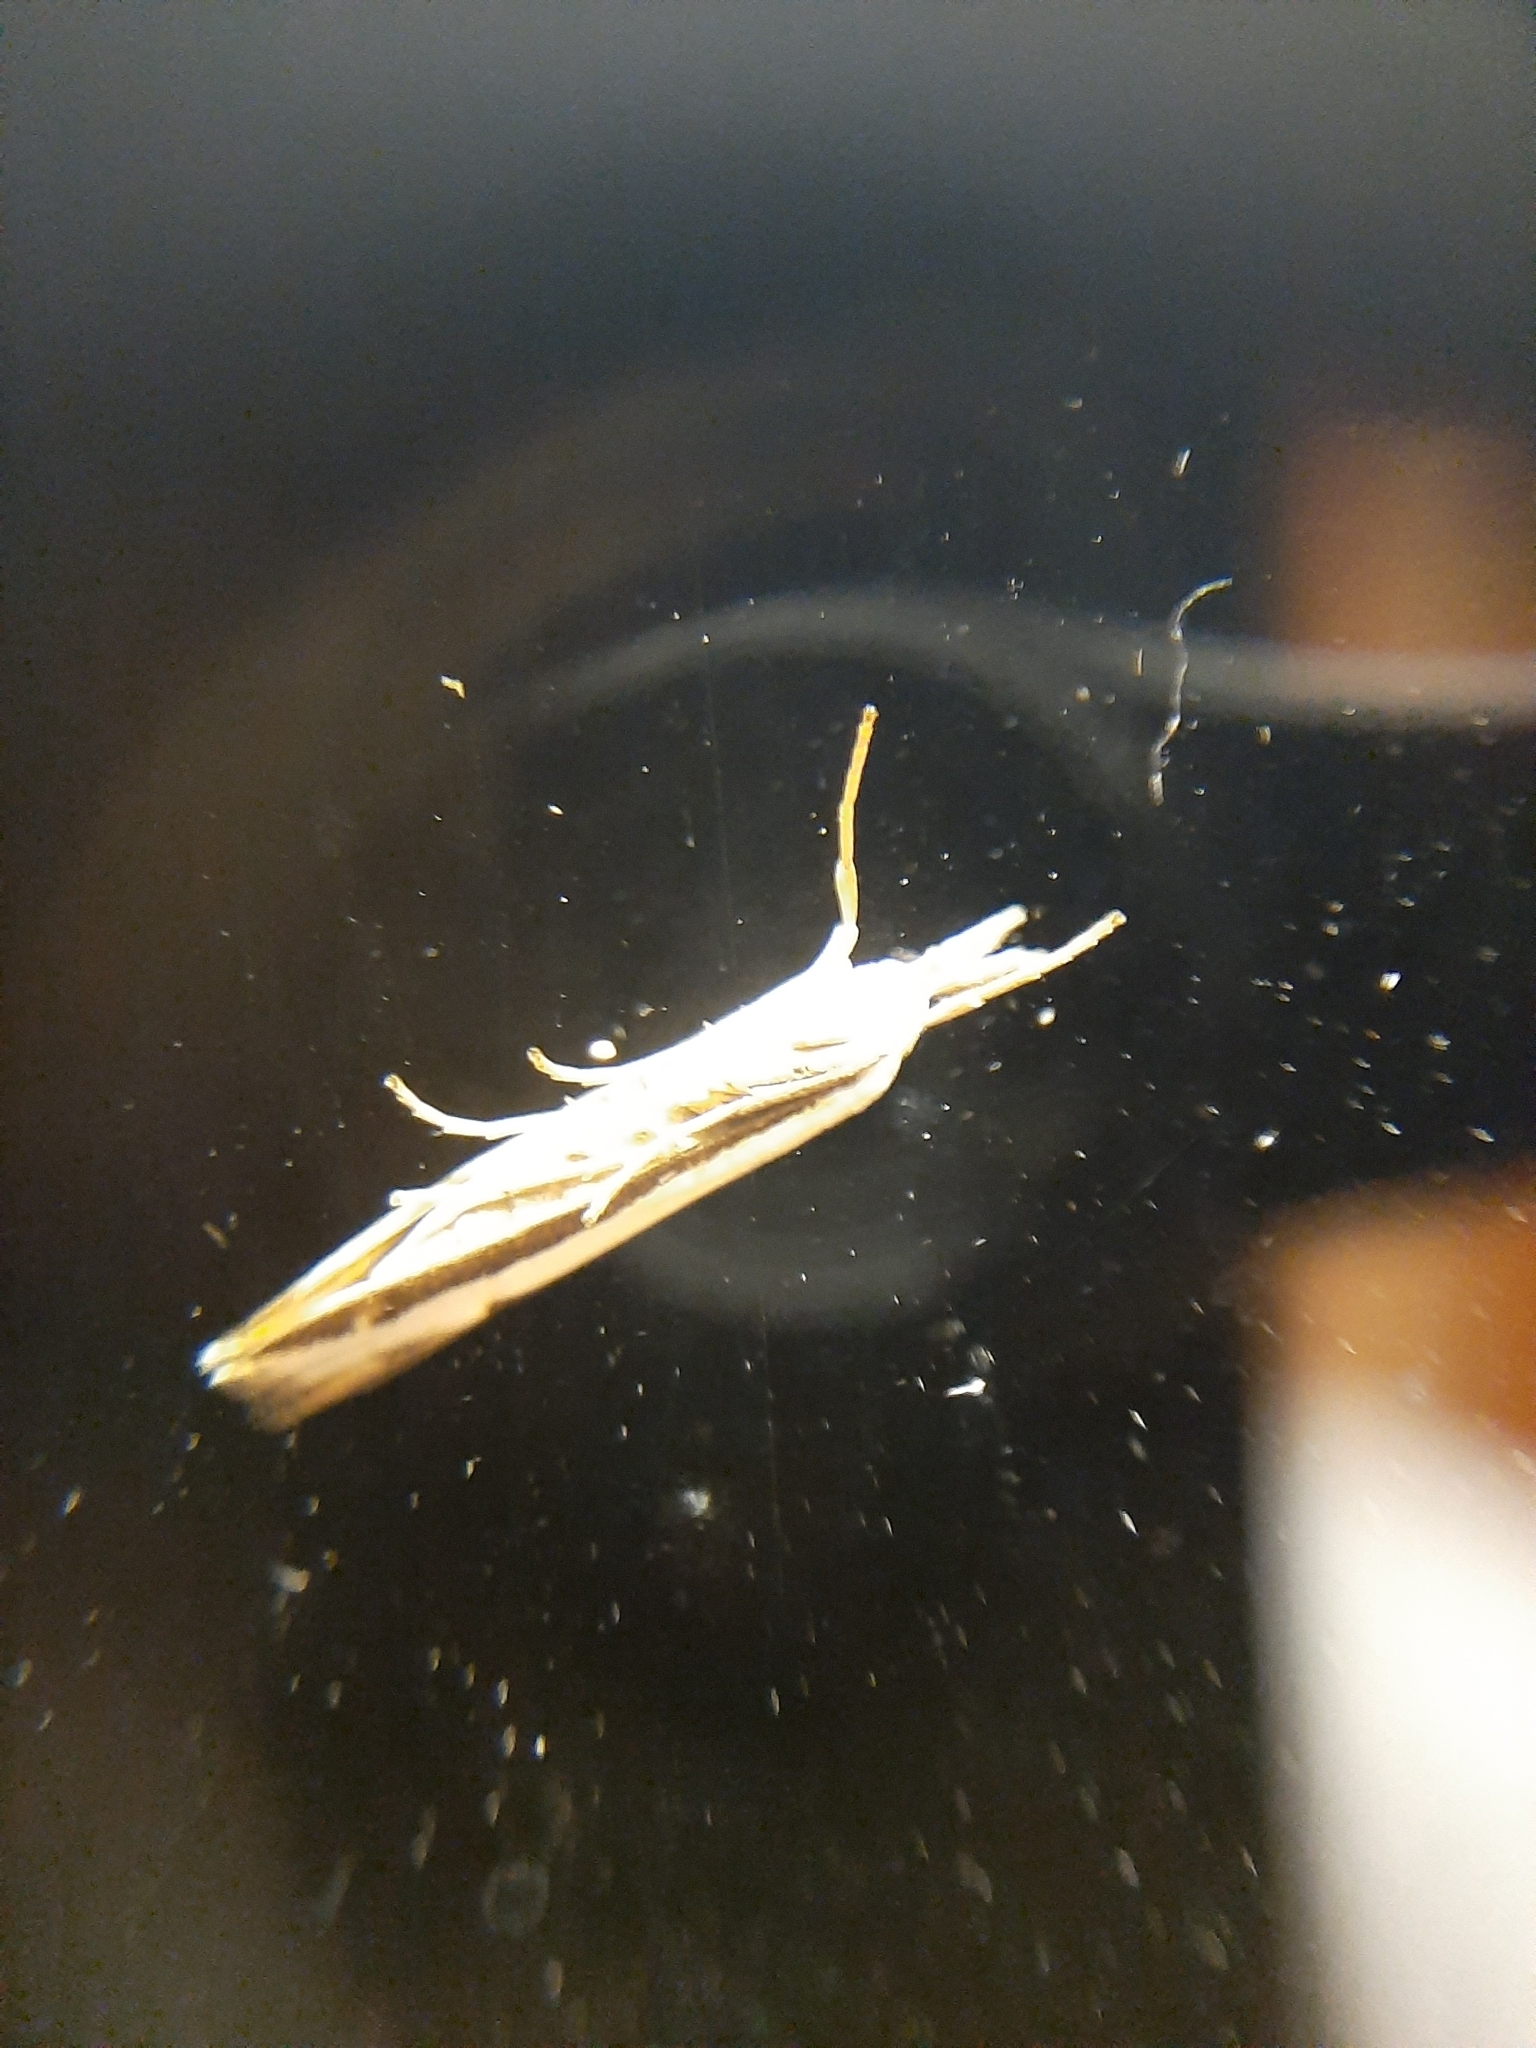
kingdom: Animalia
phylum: Arthropoda
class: Insecta
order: Lepidoptera
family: Crambidae
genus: Orocrambus
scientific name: Orocrambus flexuosellus
